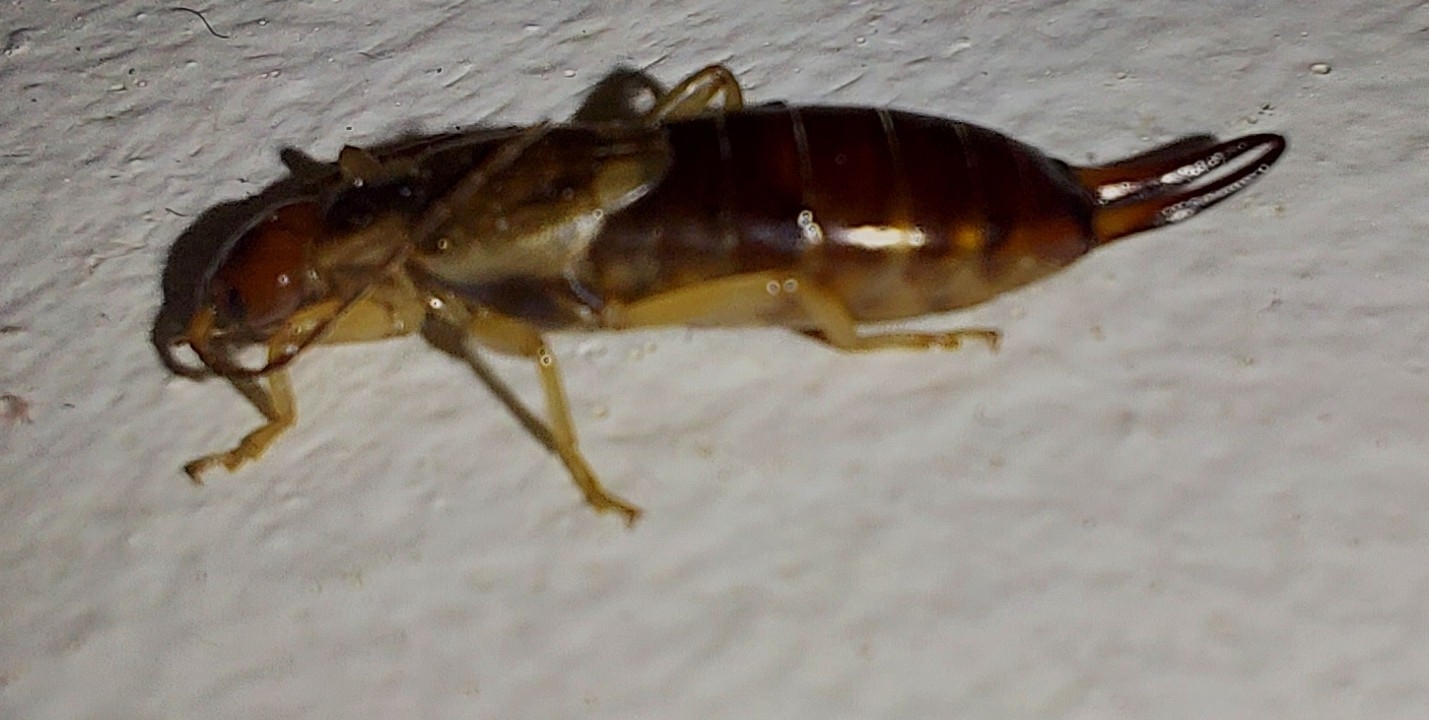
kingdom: Animalia
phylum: Arthropoda
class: Insecta
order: Dermaptera
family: Forficulidae
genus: Forficula
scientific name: Forficula
